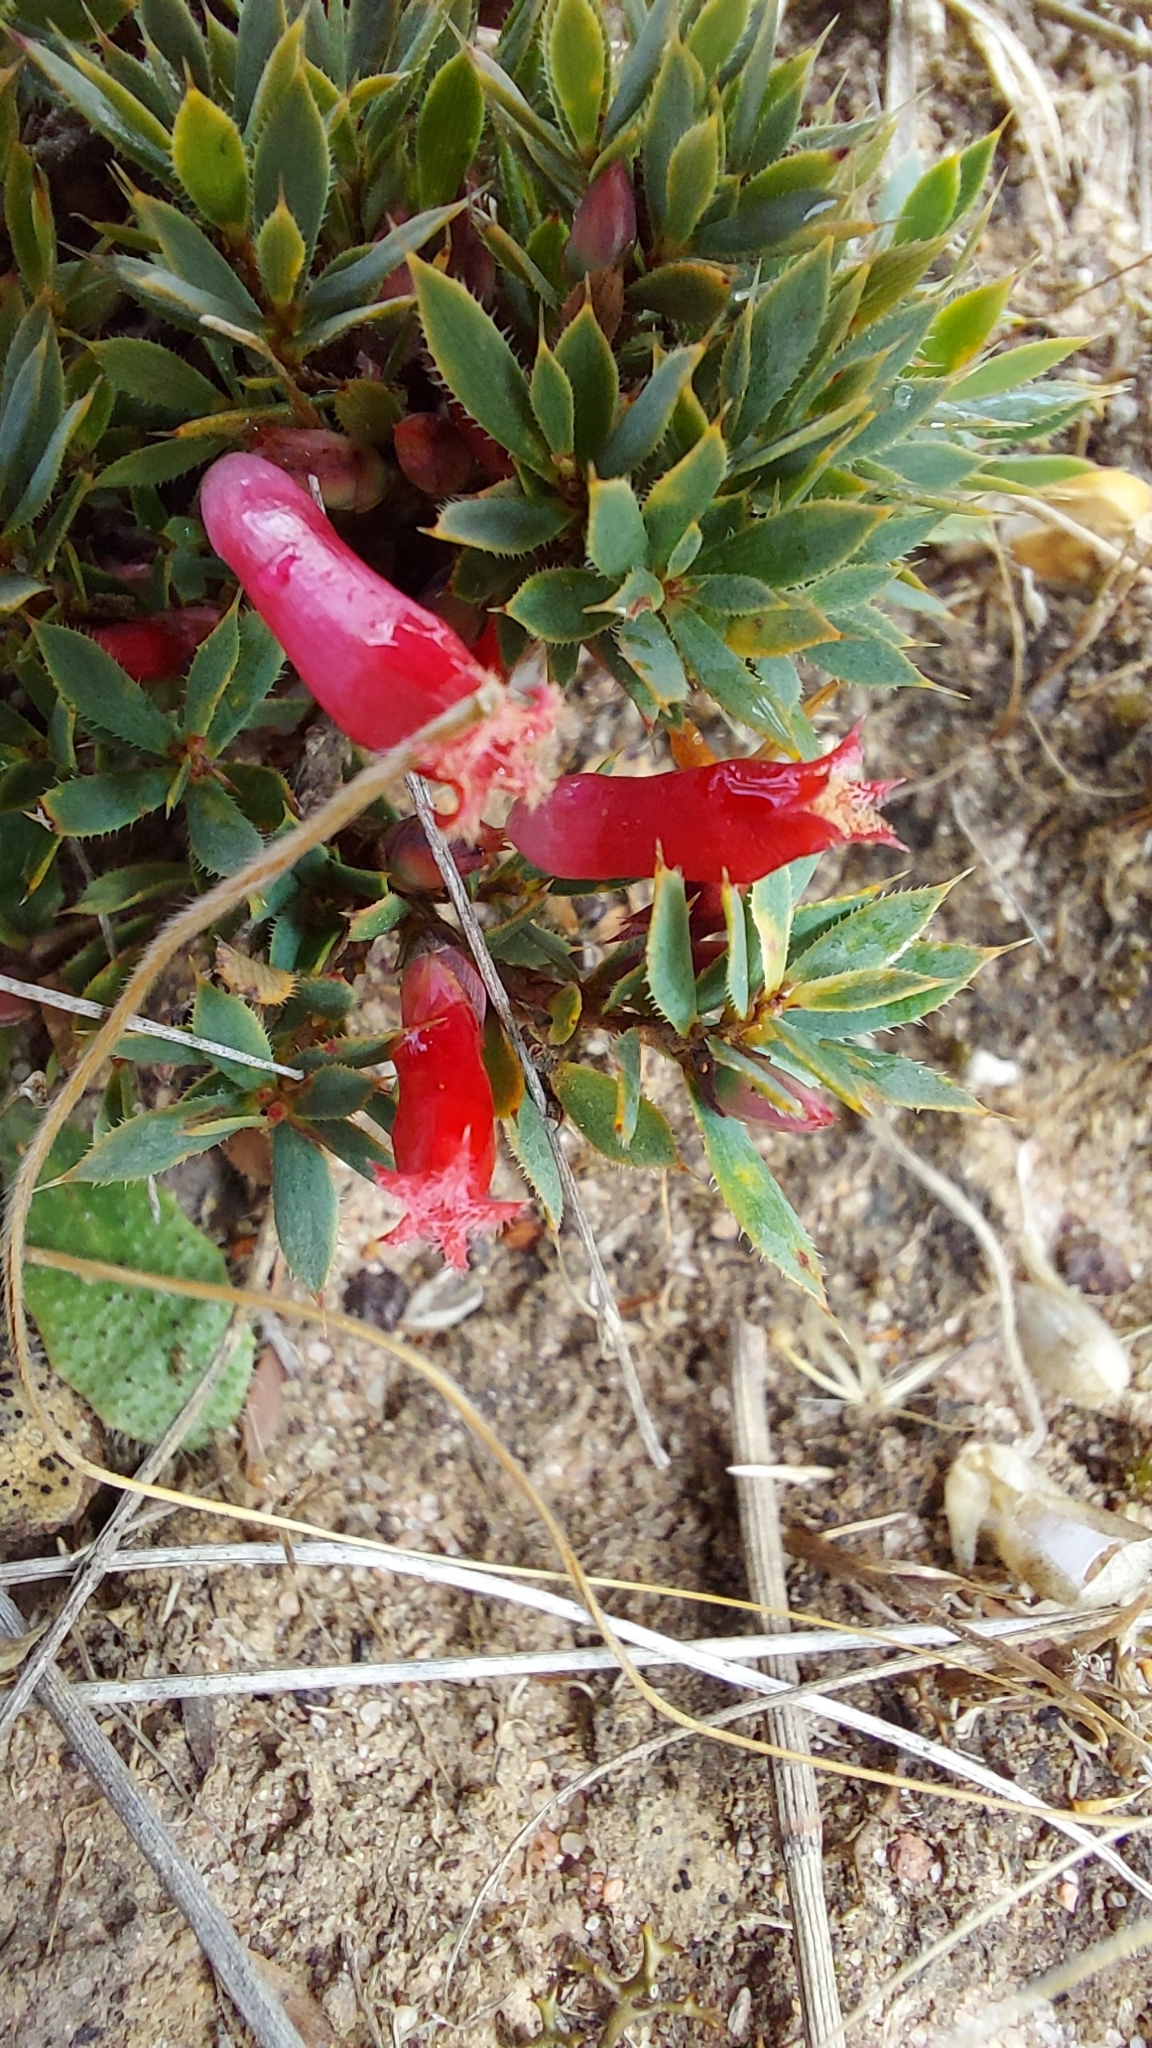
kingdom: Plantae
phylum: Tracheophyta
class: Magnoliopsida
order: Ericales
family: Ericaceae
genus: Styphelia
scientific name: Styphelia humifusa
